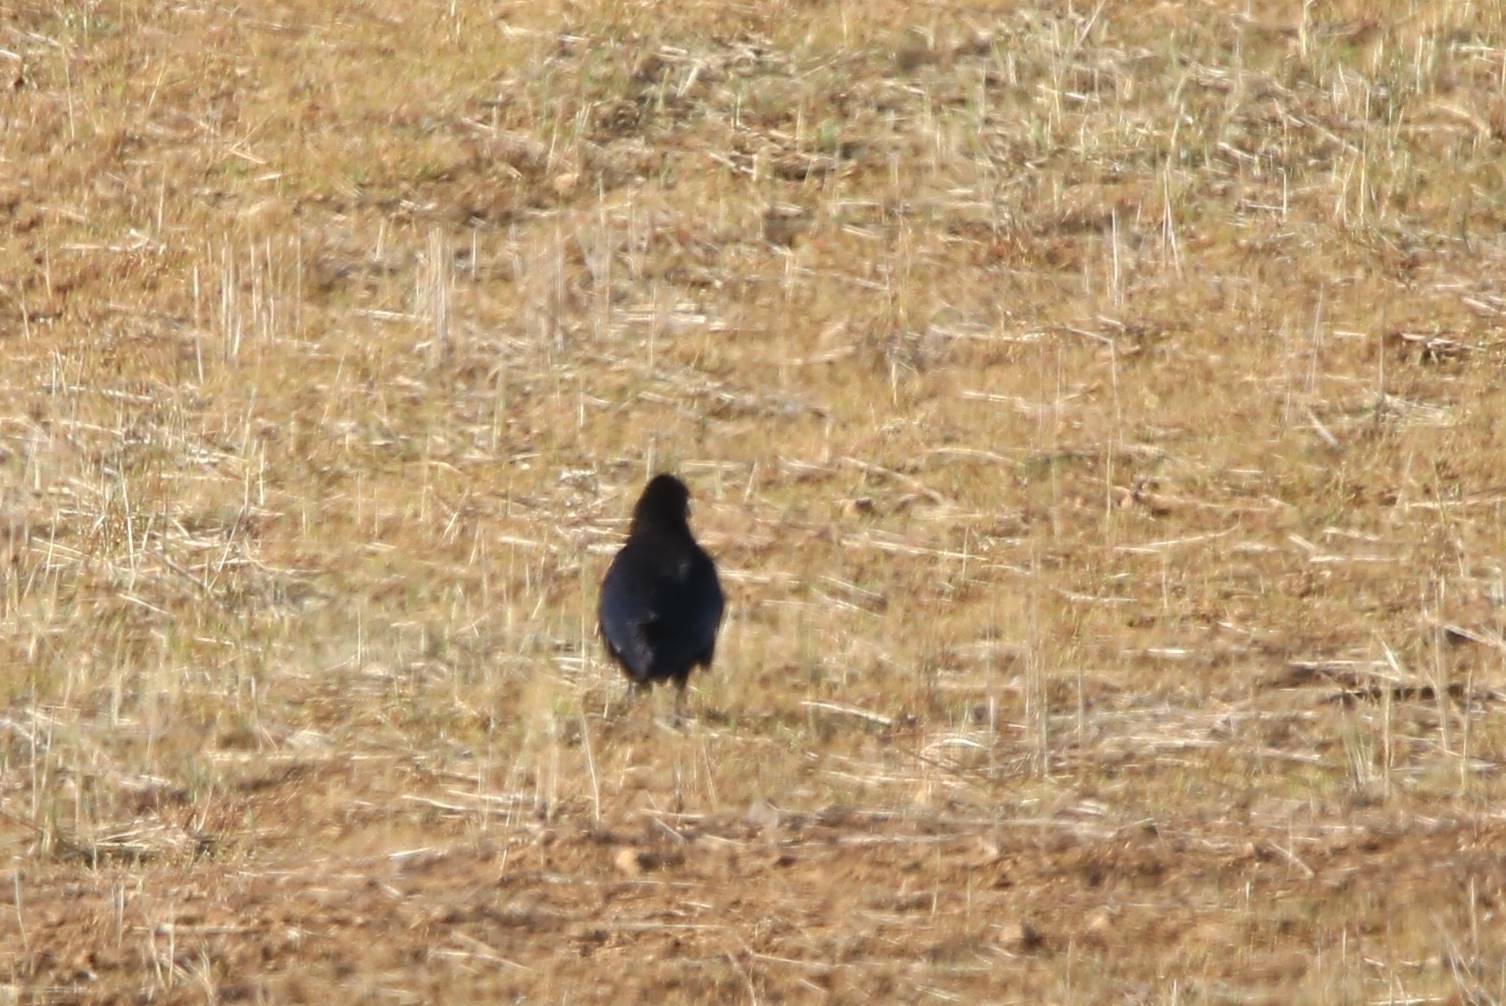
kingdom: Animalia
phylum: Chordata
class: Aves
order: Passeriformes
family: Corvidae
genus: Corvus
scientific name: Corvus corax
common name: Common raven
